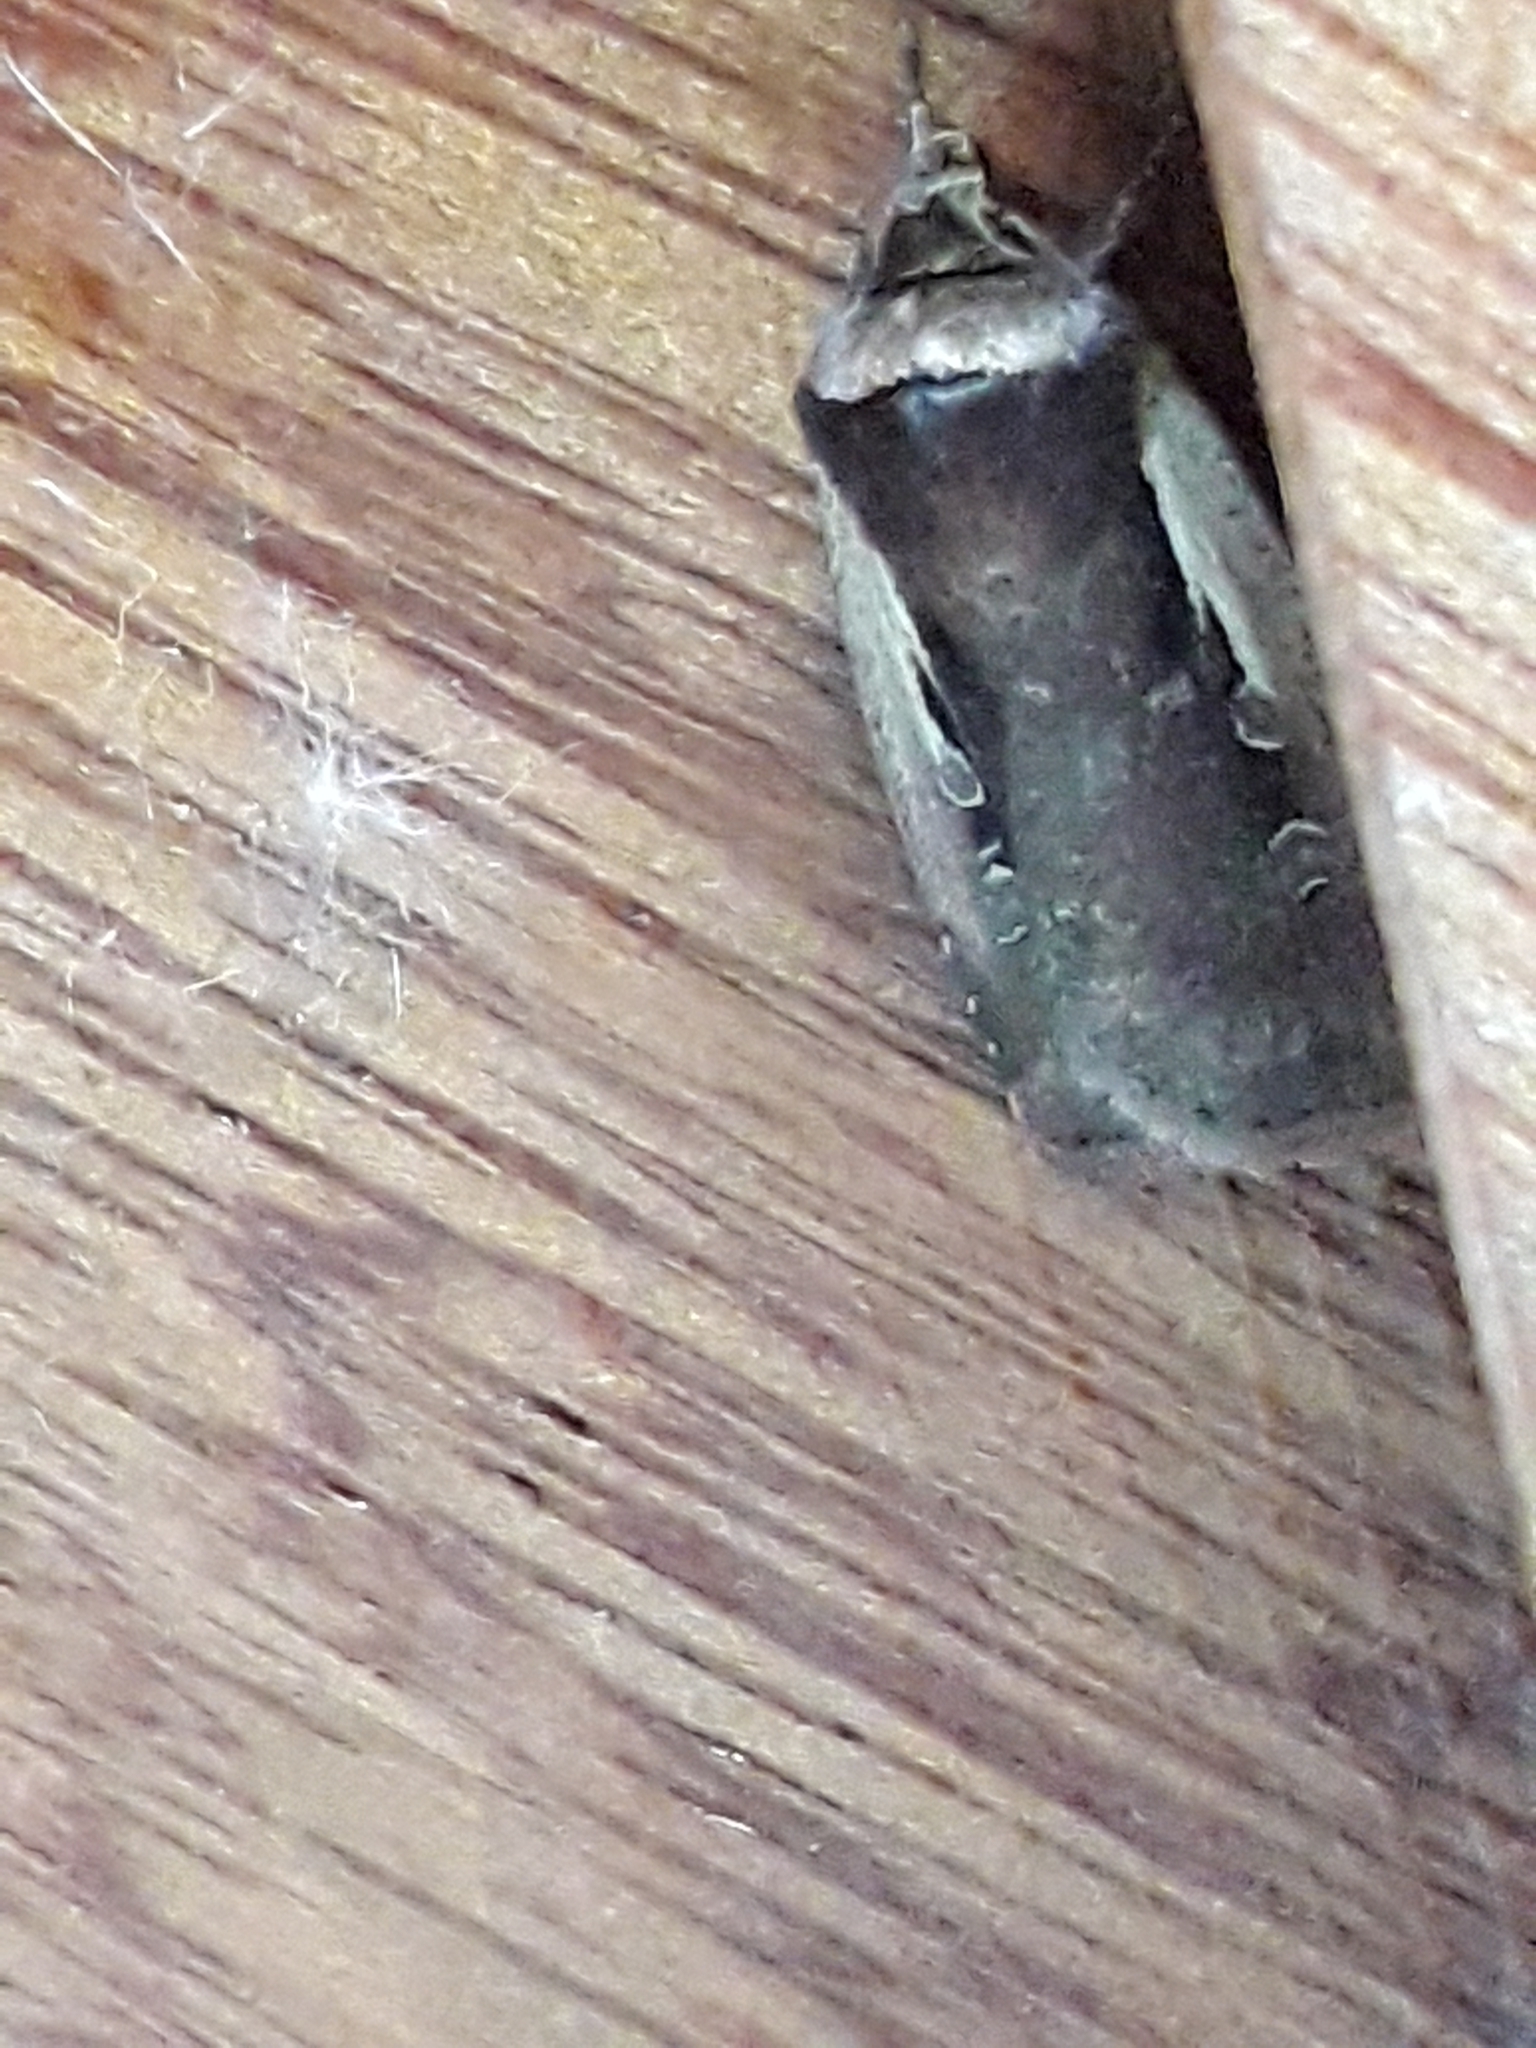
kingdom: Animalia
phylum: Arthropoda
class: Insecta
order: Lepidoptera
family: Noctuidae
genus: Ochropleura
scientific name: Ochropleura plecta
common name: Flame shoulder
